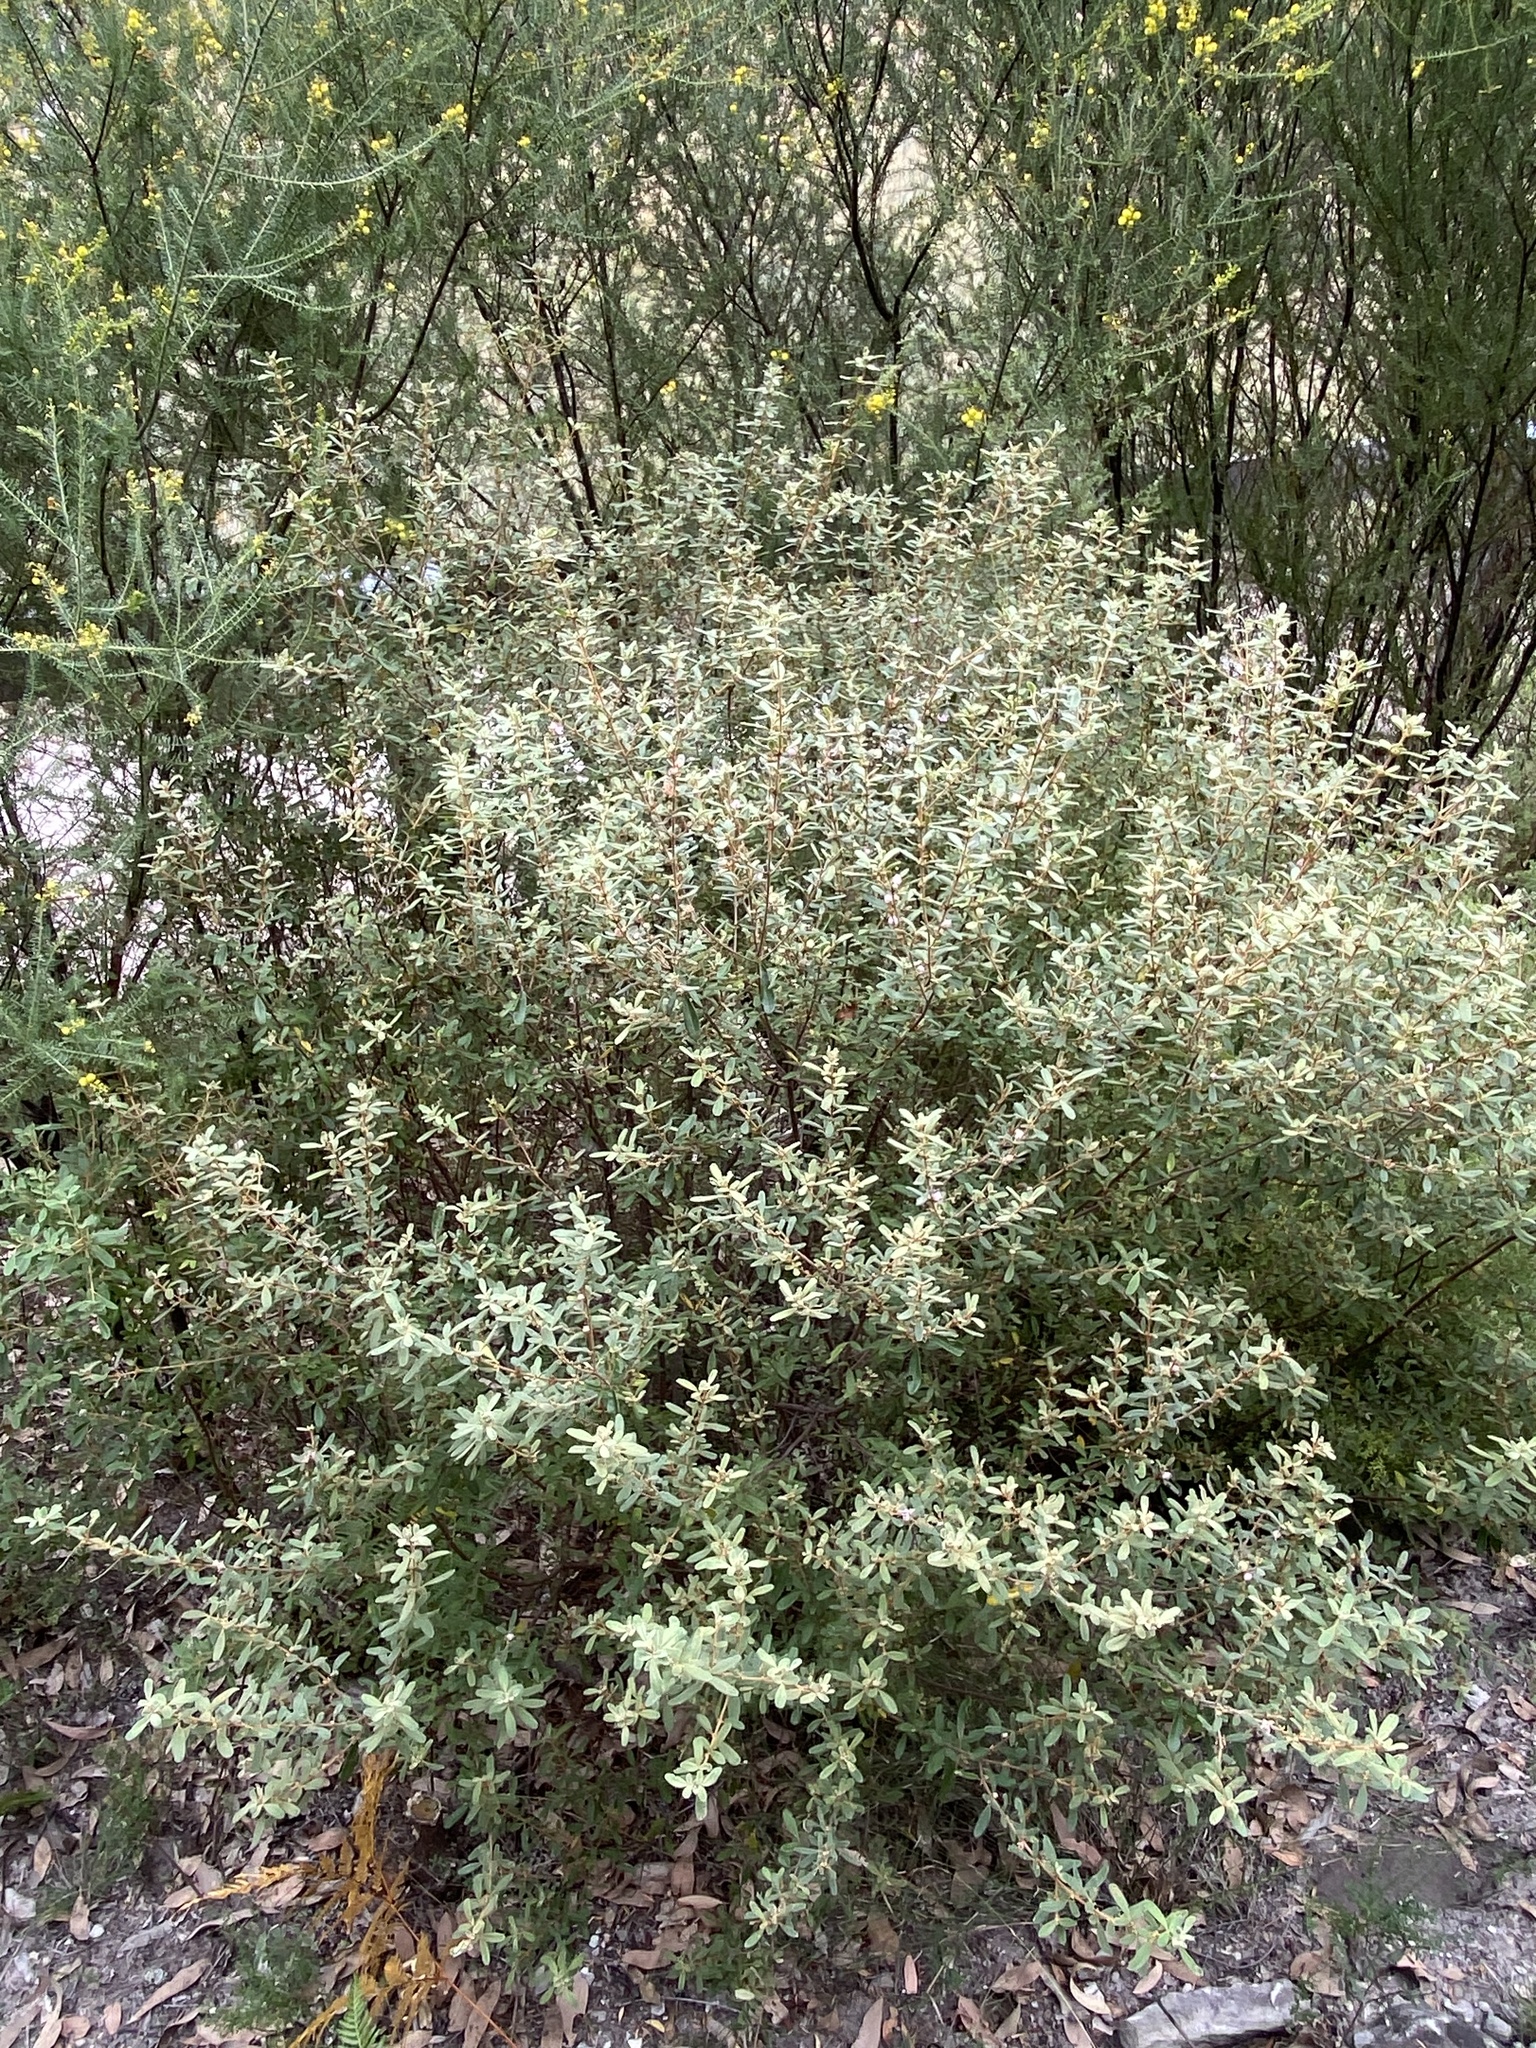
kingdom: Plantae
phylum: Tracheophyta
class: Magnoliopsida
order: Sapindales
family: Rutaceae
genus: Boronia
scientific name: Boronia duiganiae
